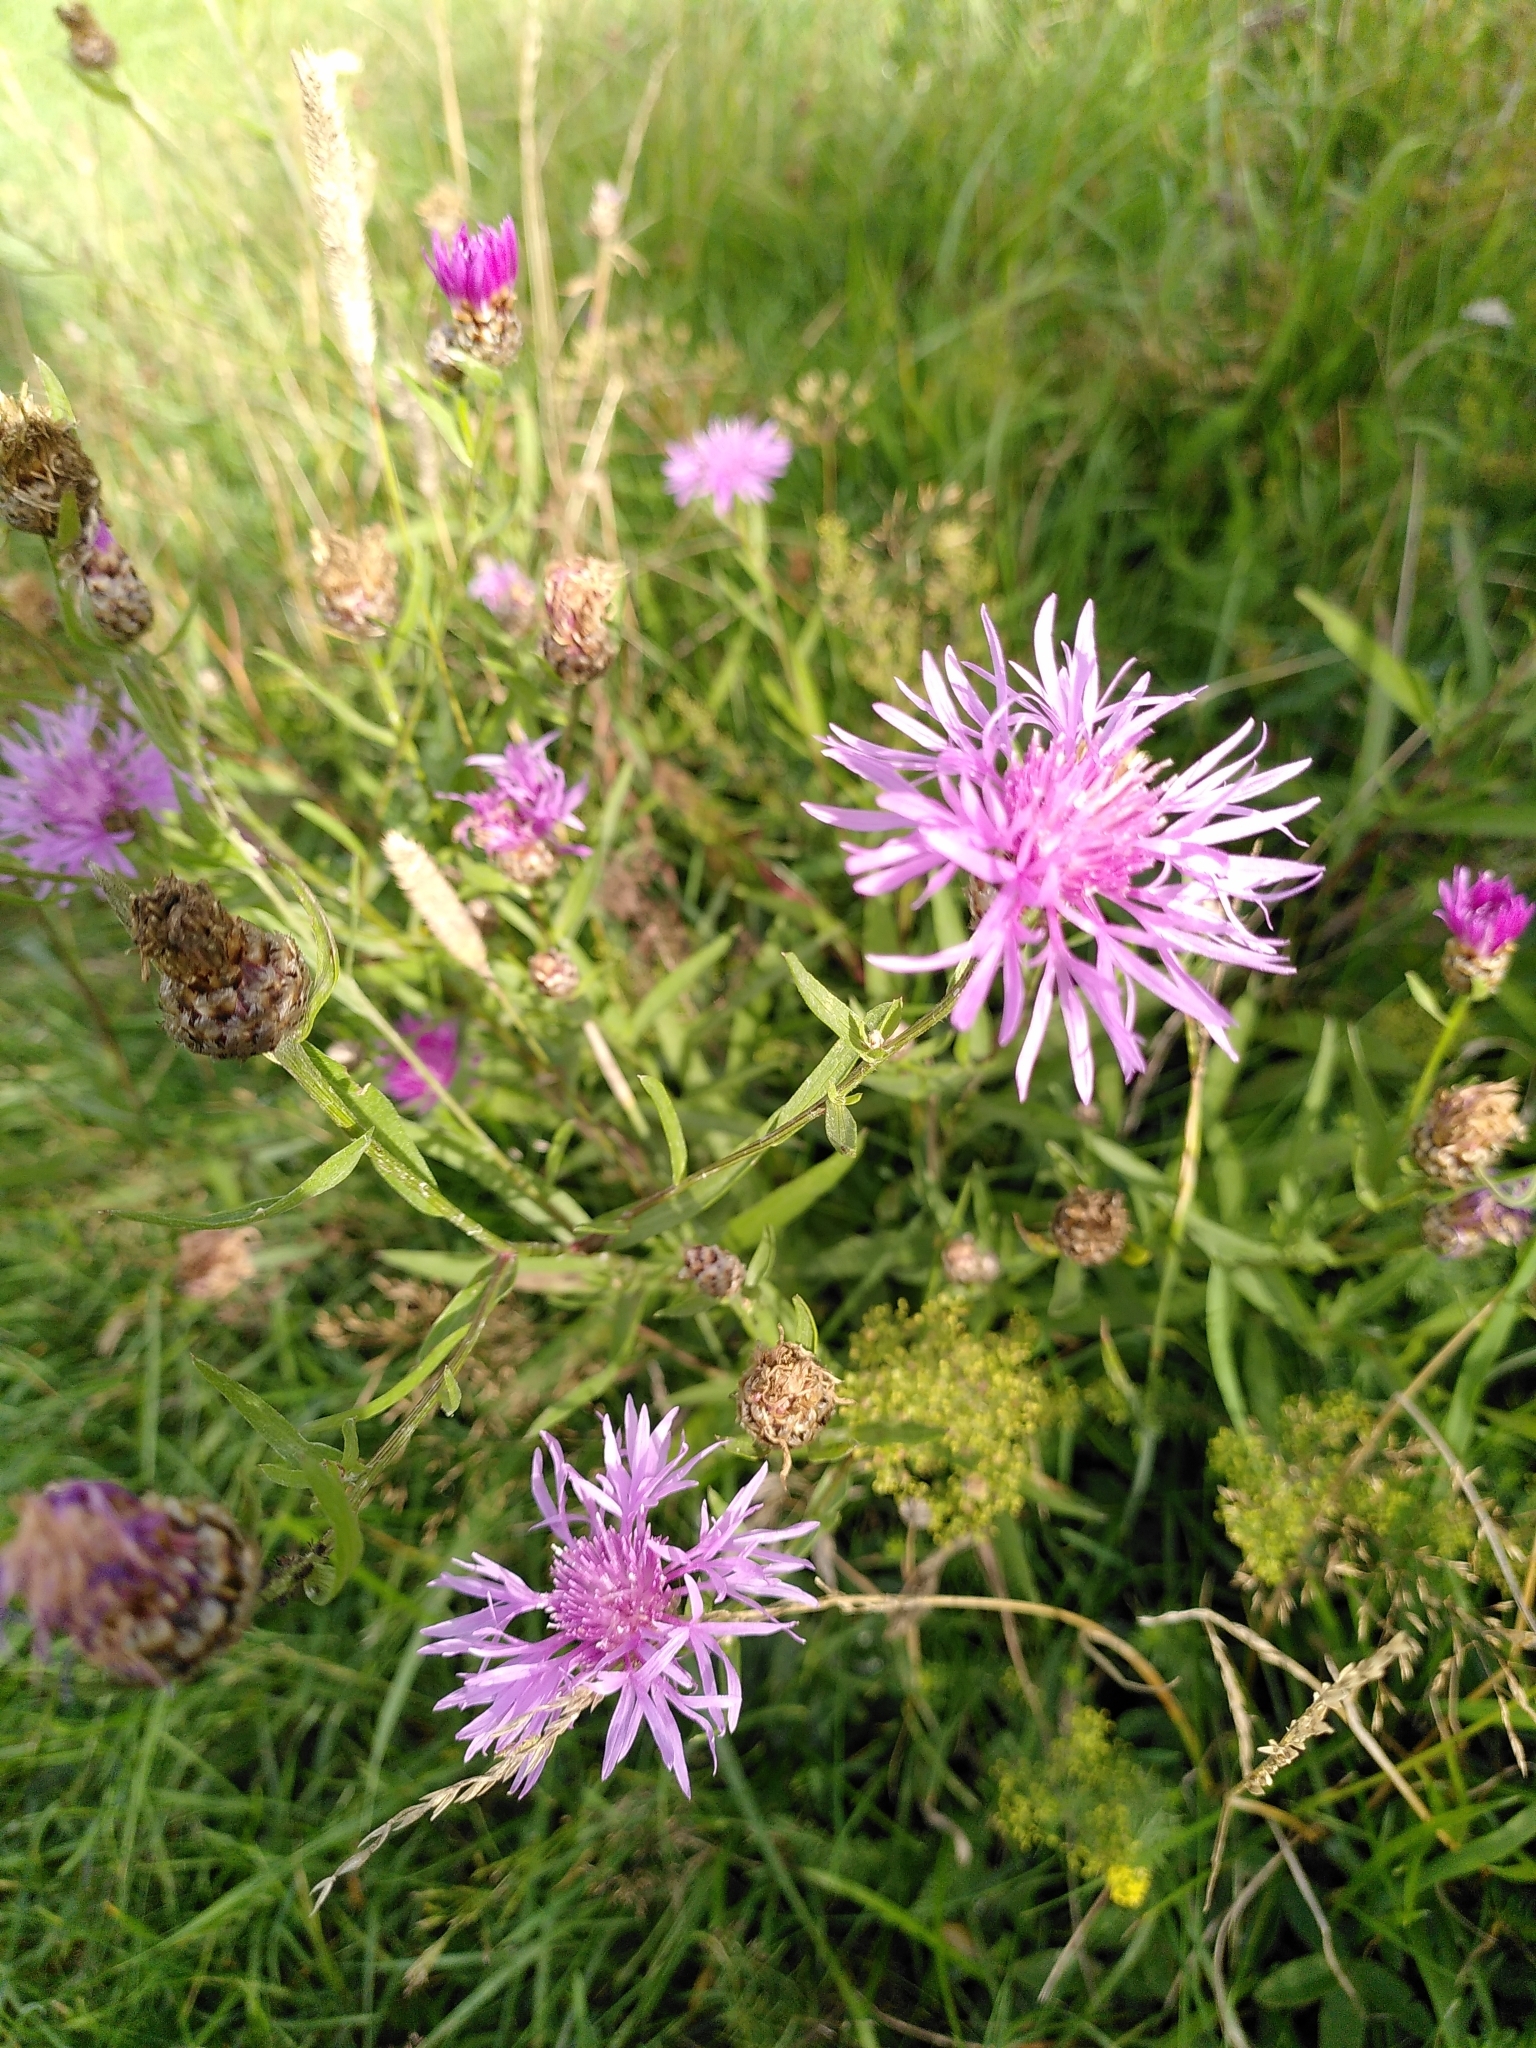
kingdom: Plantae
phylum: Tracheophyta
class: Magnoliopsida
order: Asterales
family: Asteraceae
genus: Centaurea
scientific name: Centaurea jacea
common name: Brown knapweed
